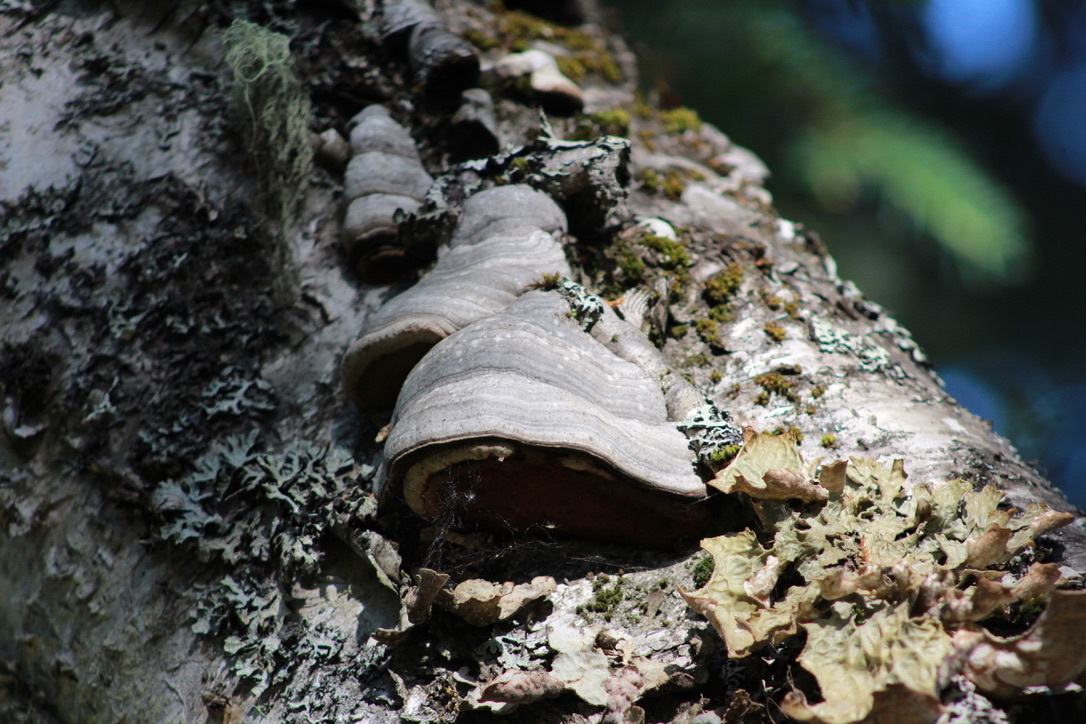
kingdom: Fungi
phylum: Basidiomycota
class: Agaricomycetes
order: Polyporales
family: Polyporaceae
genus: Fomes
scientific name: Fomes fomentarius
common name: Hoof fungus
